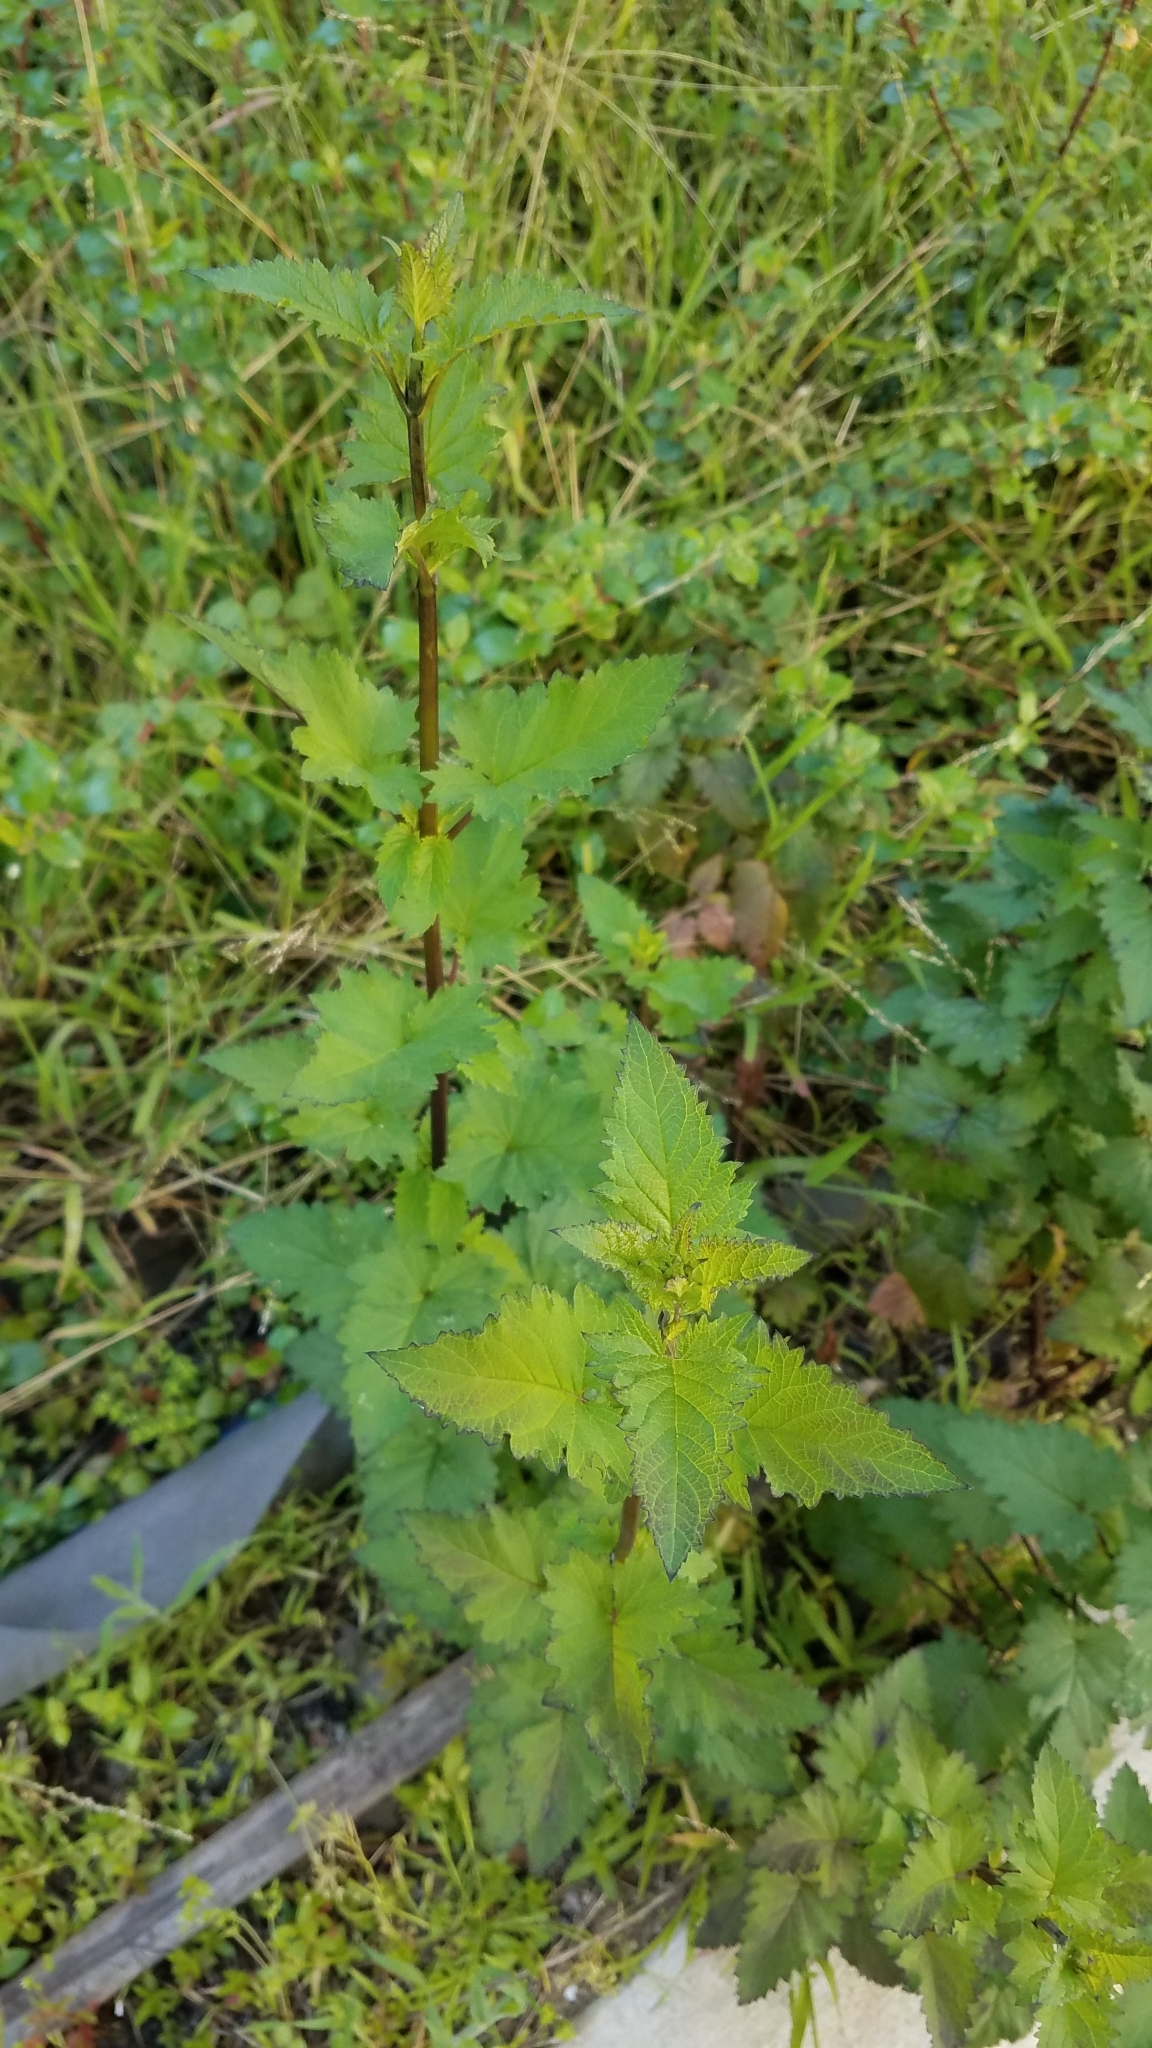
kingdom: Plantae
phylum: Tracheophyta
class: Magnoliopsida
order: Lamiales
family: Scrophulariaceae
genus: Scrophularia
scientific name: Scrophularia californica
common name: California figwort
